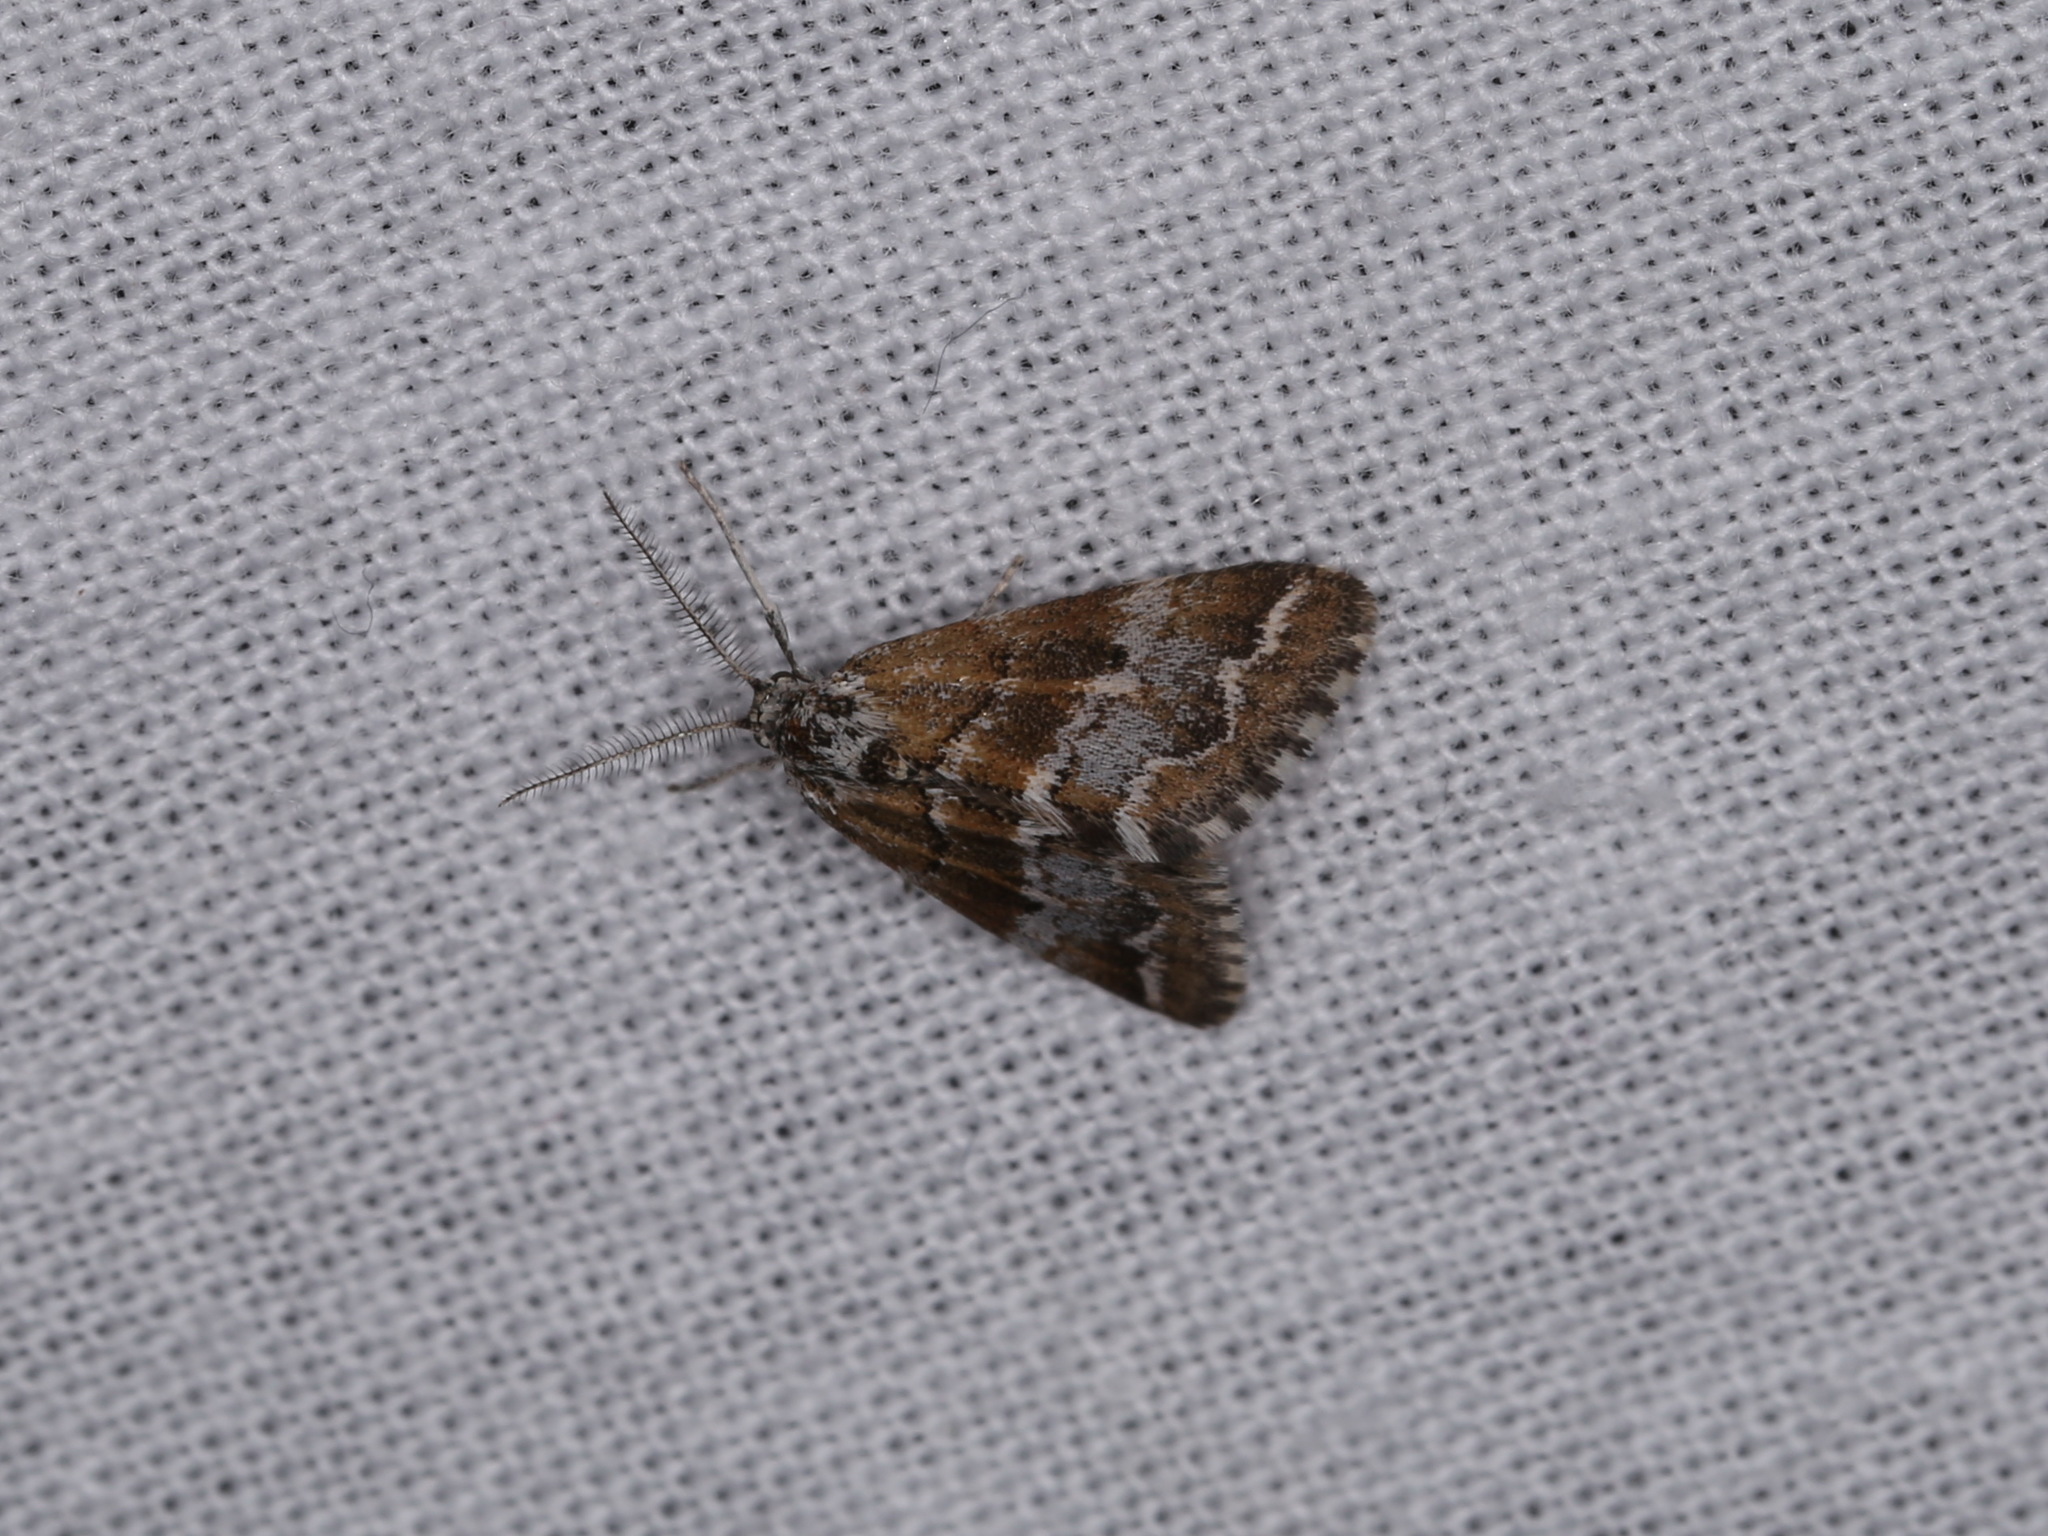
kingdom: Animalia
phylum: Arthropoda
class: Insecta
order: Lepidoptera
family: Geometridae
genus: Anomocentris
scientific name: Anomocentris trissodesma
